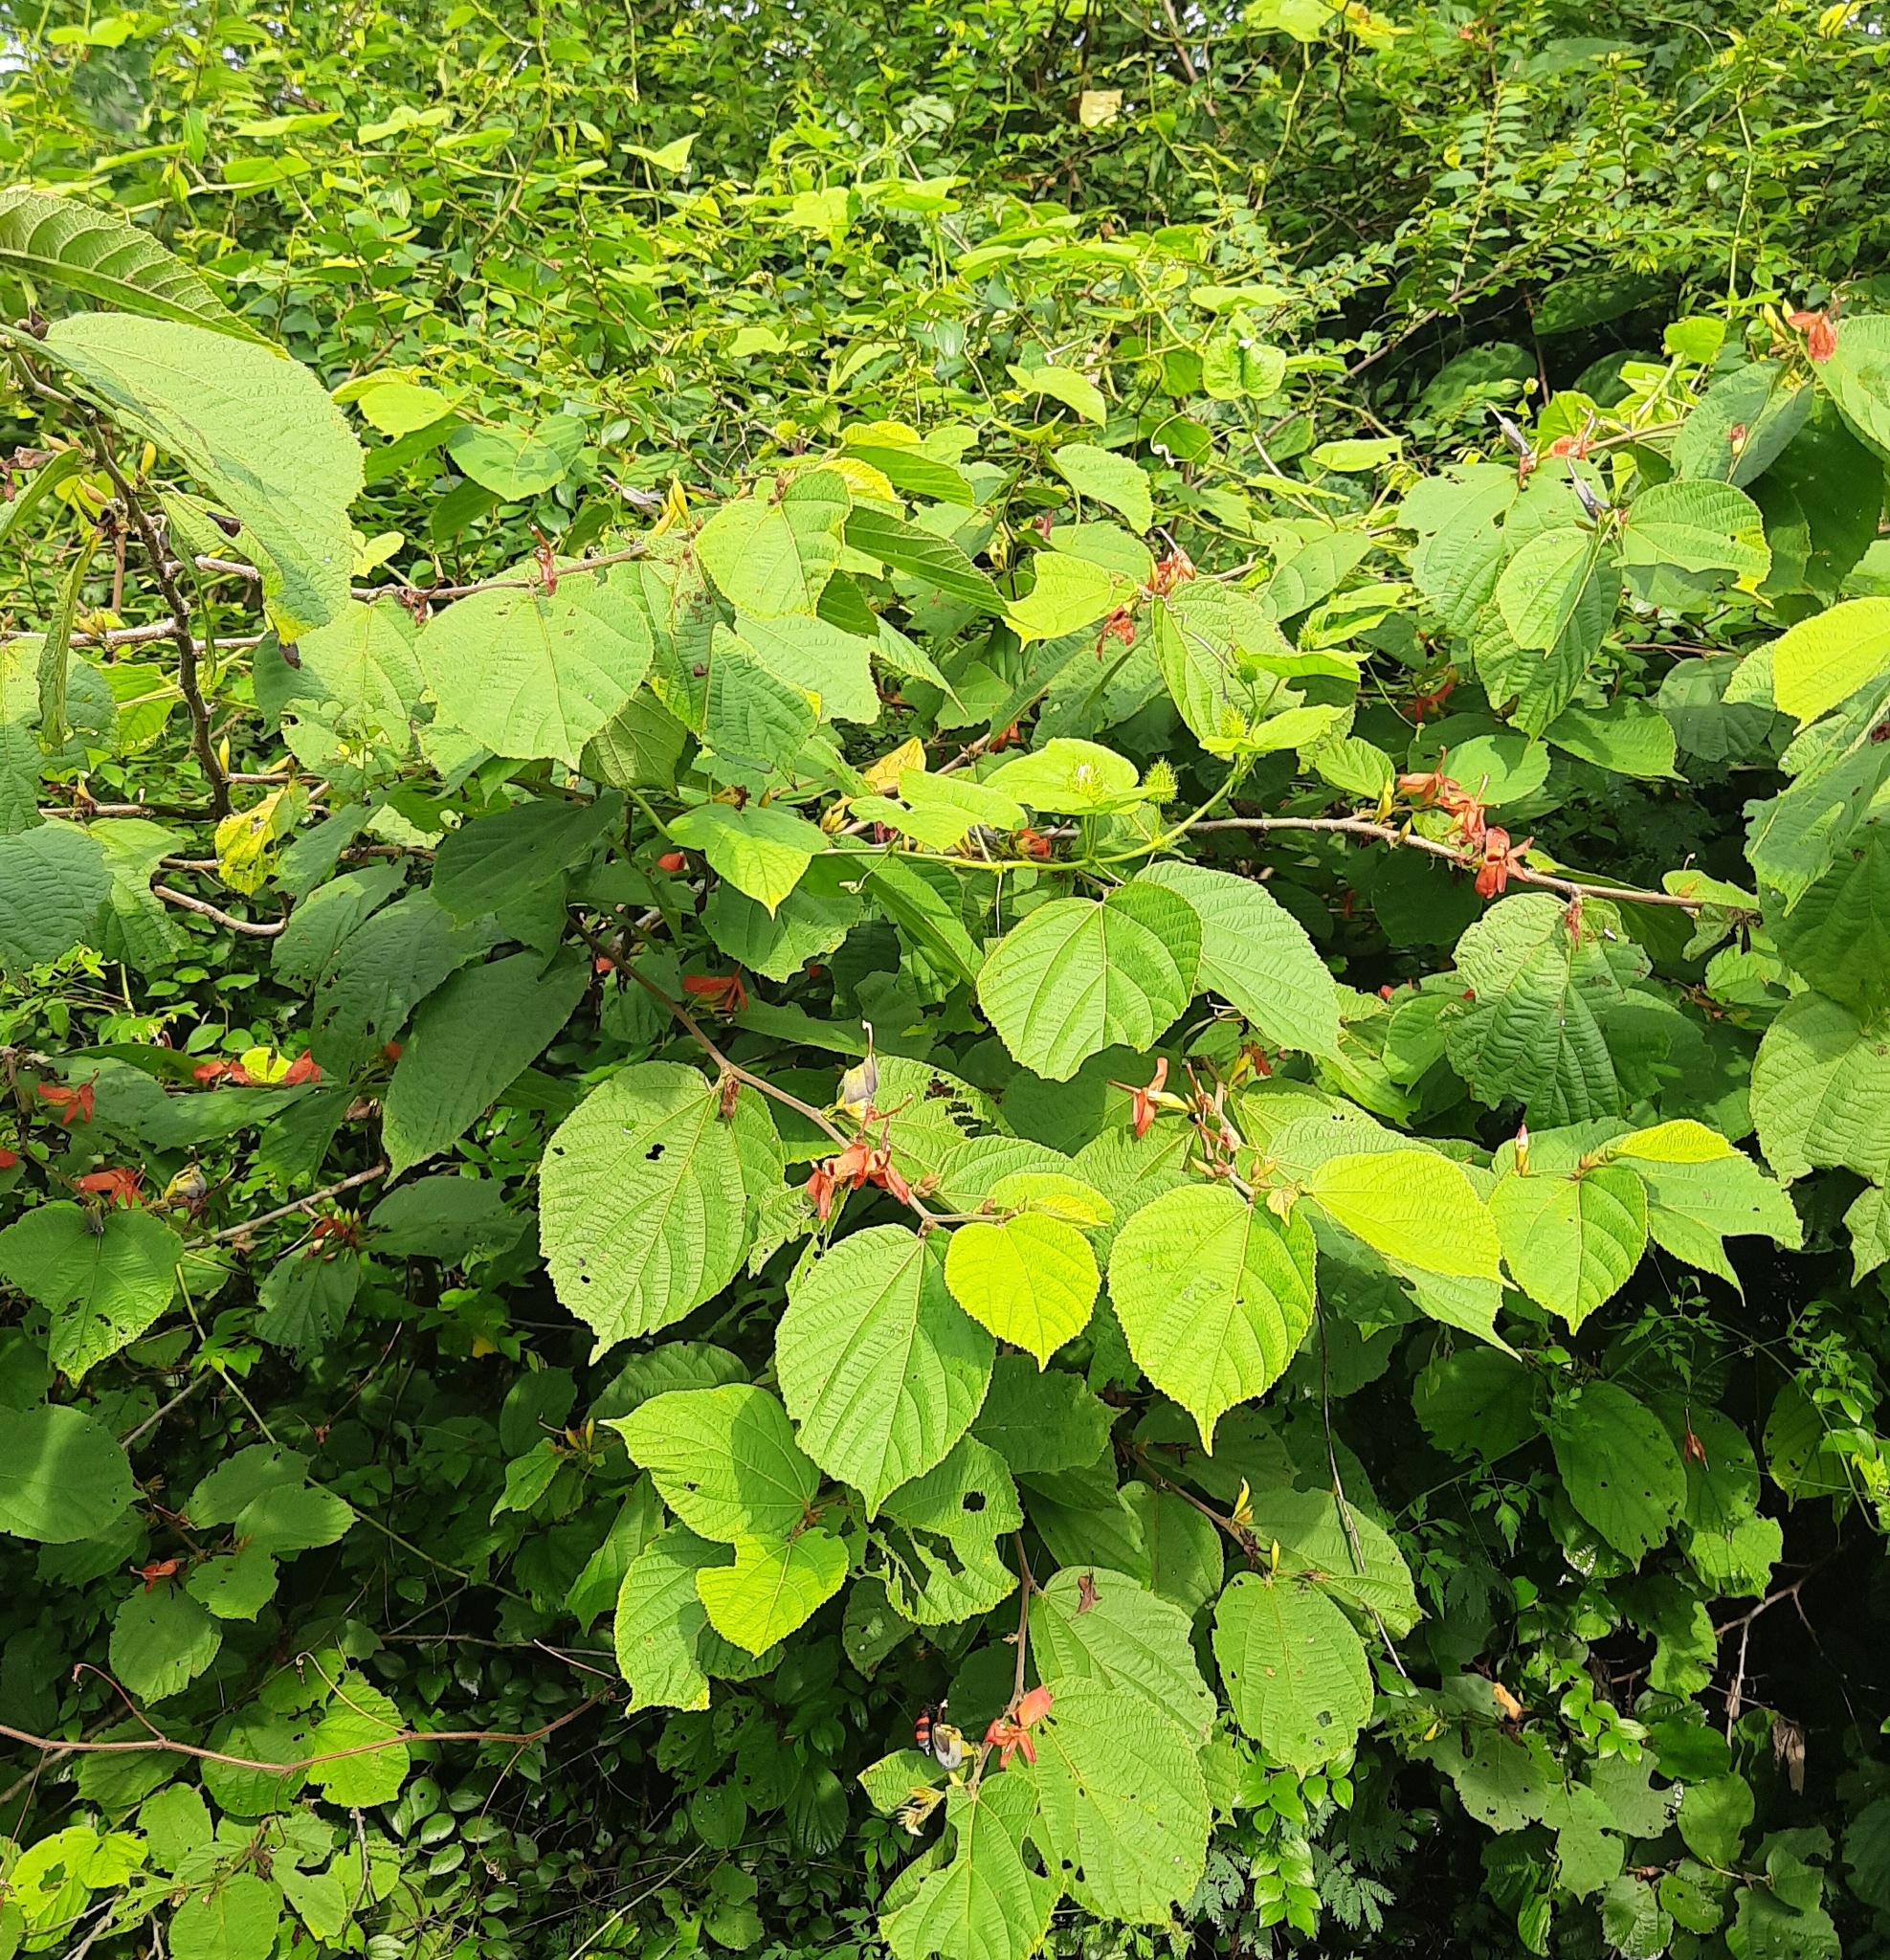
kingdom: Plantae
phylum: Tracheophyta
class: Magnoliopsida
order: Malvales
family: Malvaceae
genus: Helicteres
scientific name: Helicteres isora
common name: East indian screwtree
